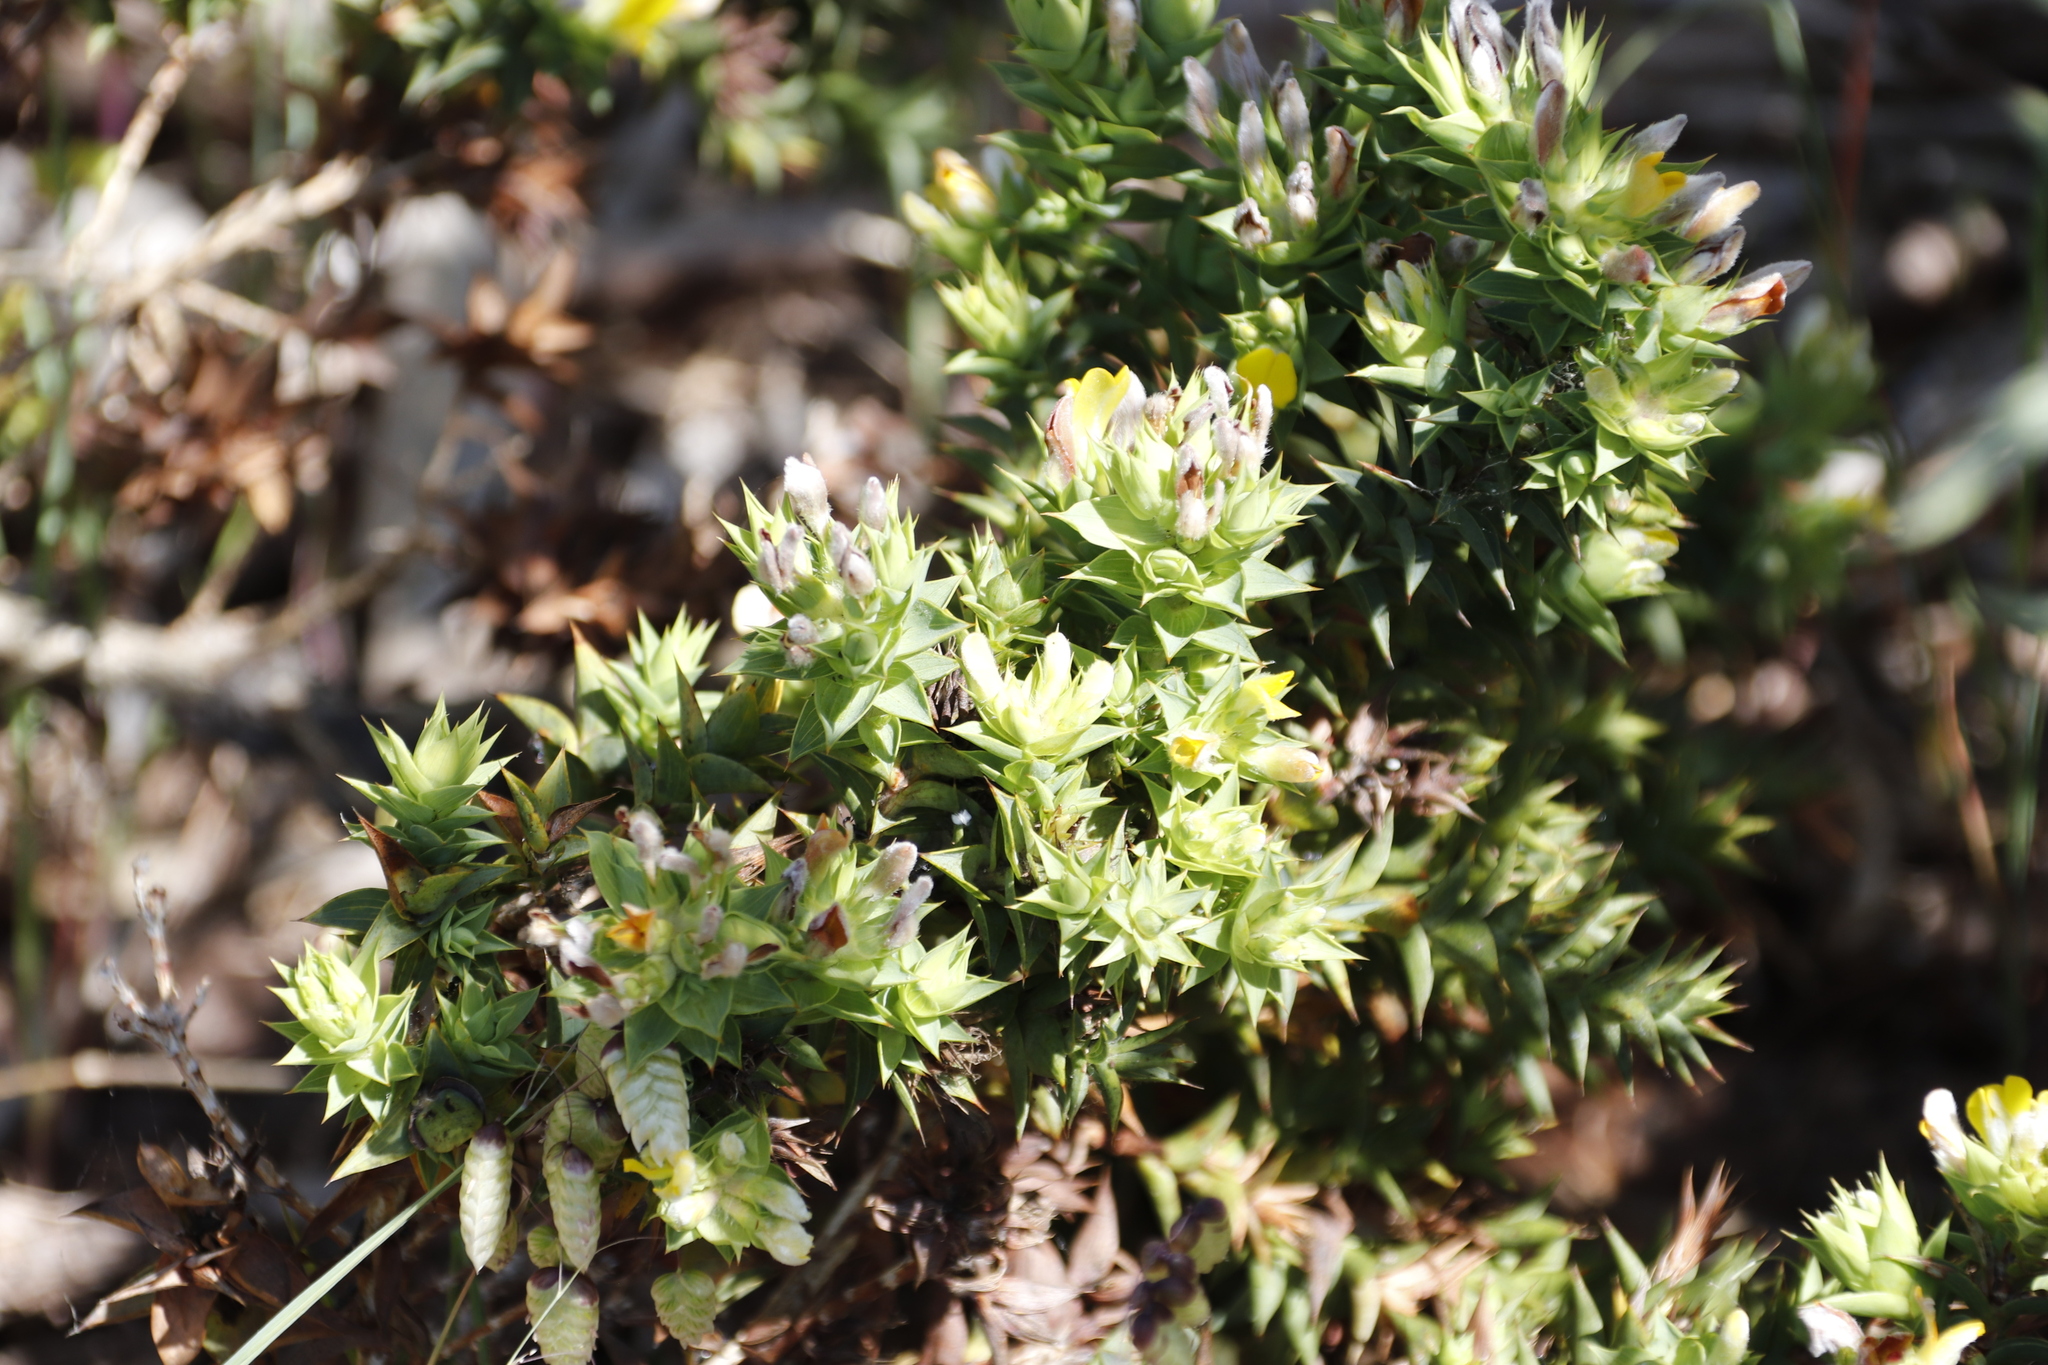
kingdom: Plantae
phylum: Tracheophyta
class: Magnoliopsida
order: Fabales
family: Fabaceae
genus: Aspalathus
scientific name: Aspalathus cordata
